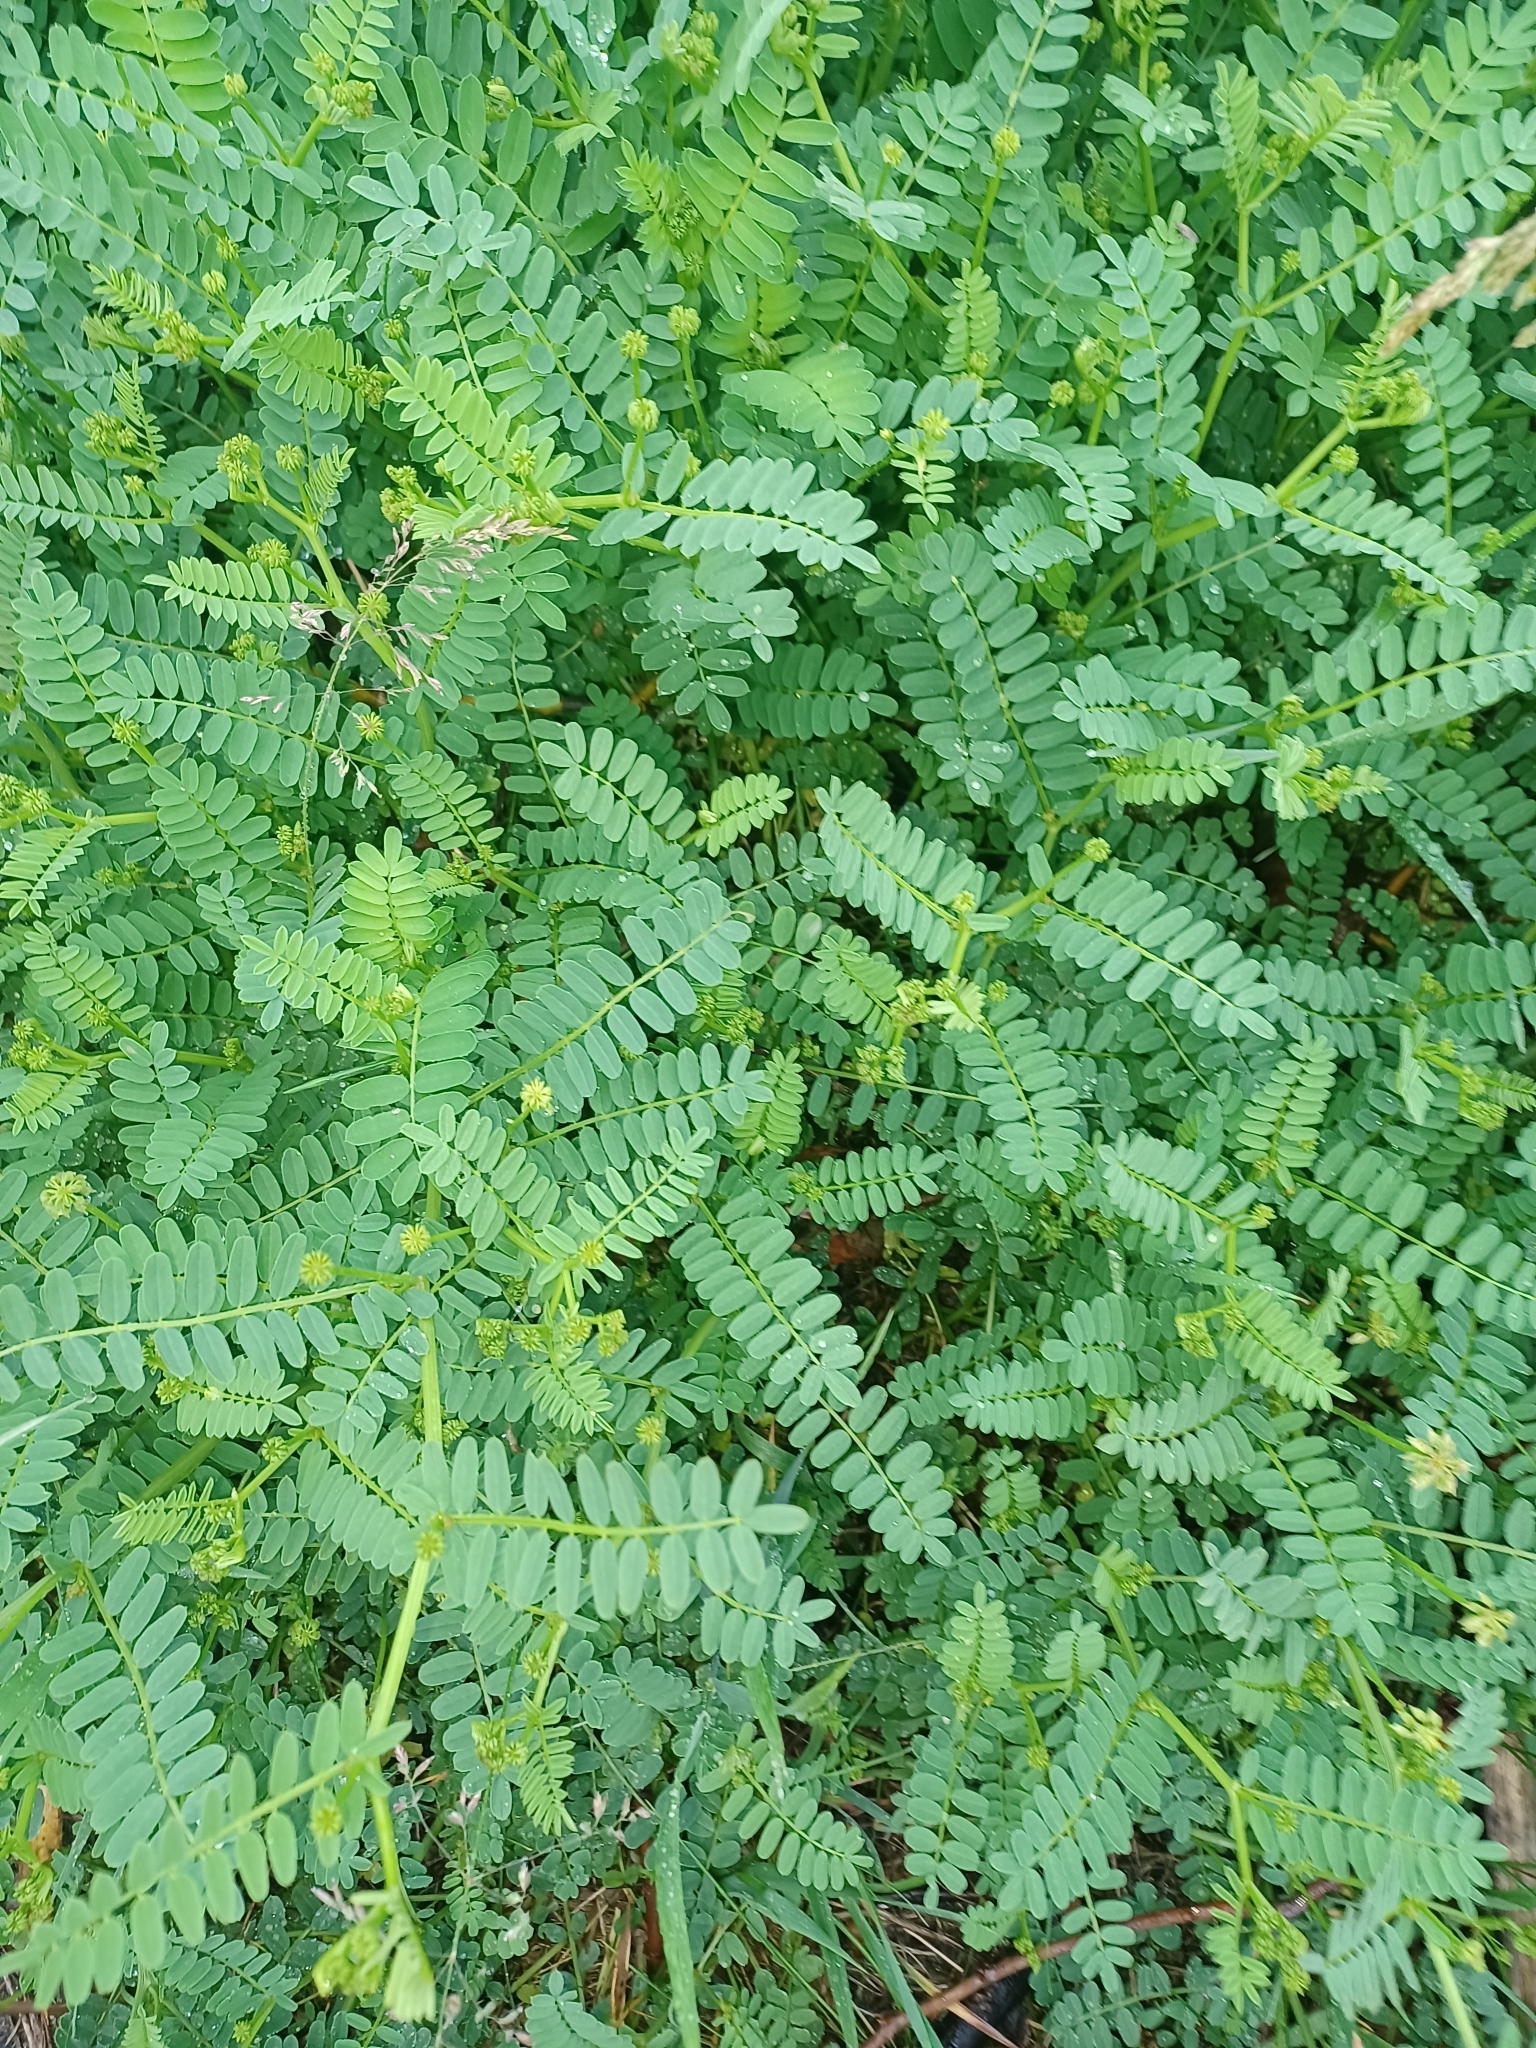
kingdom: Plantae
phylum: Tracheophyta
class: Magnoliopsida
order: Fabales
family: Fabaceae
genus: Coronilla
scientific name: Coronilla varia
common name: Crownvetch
